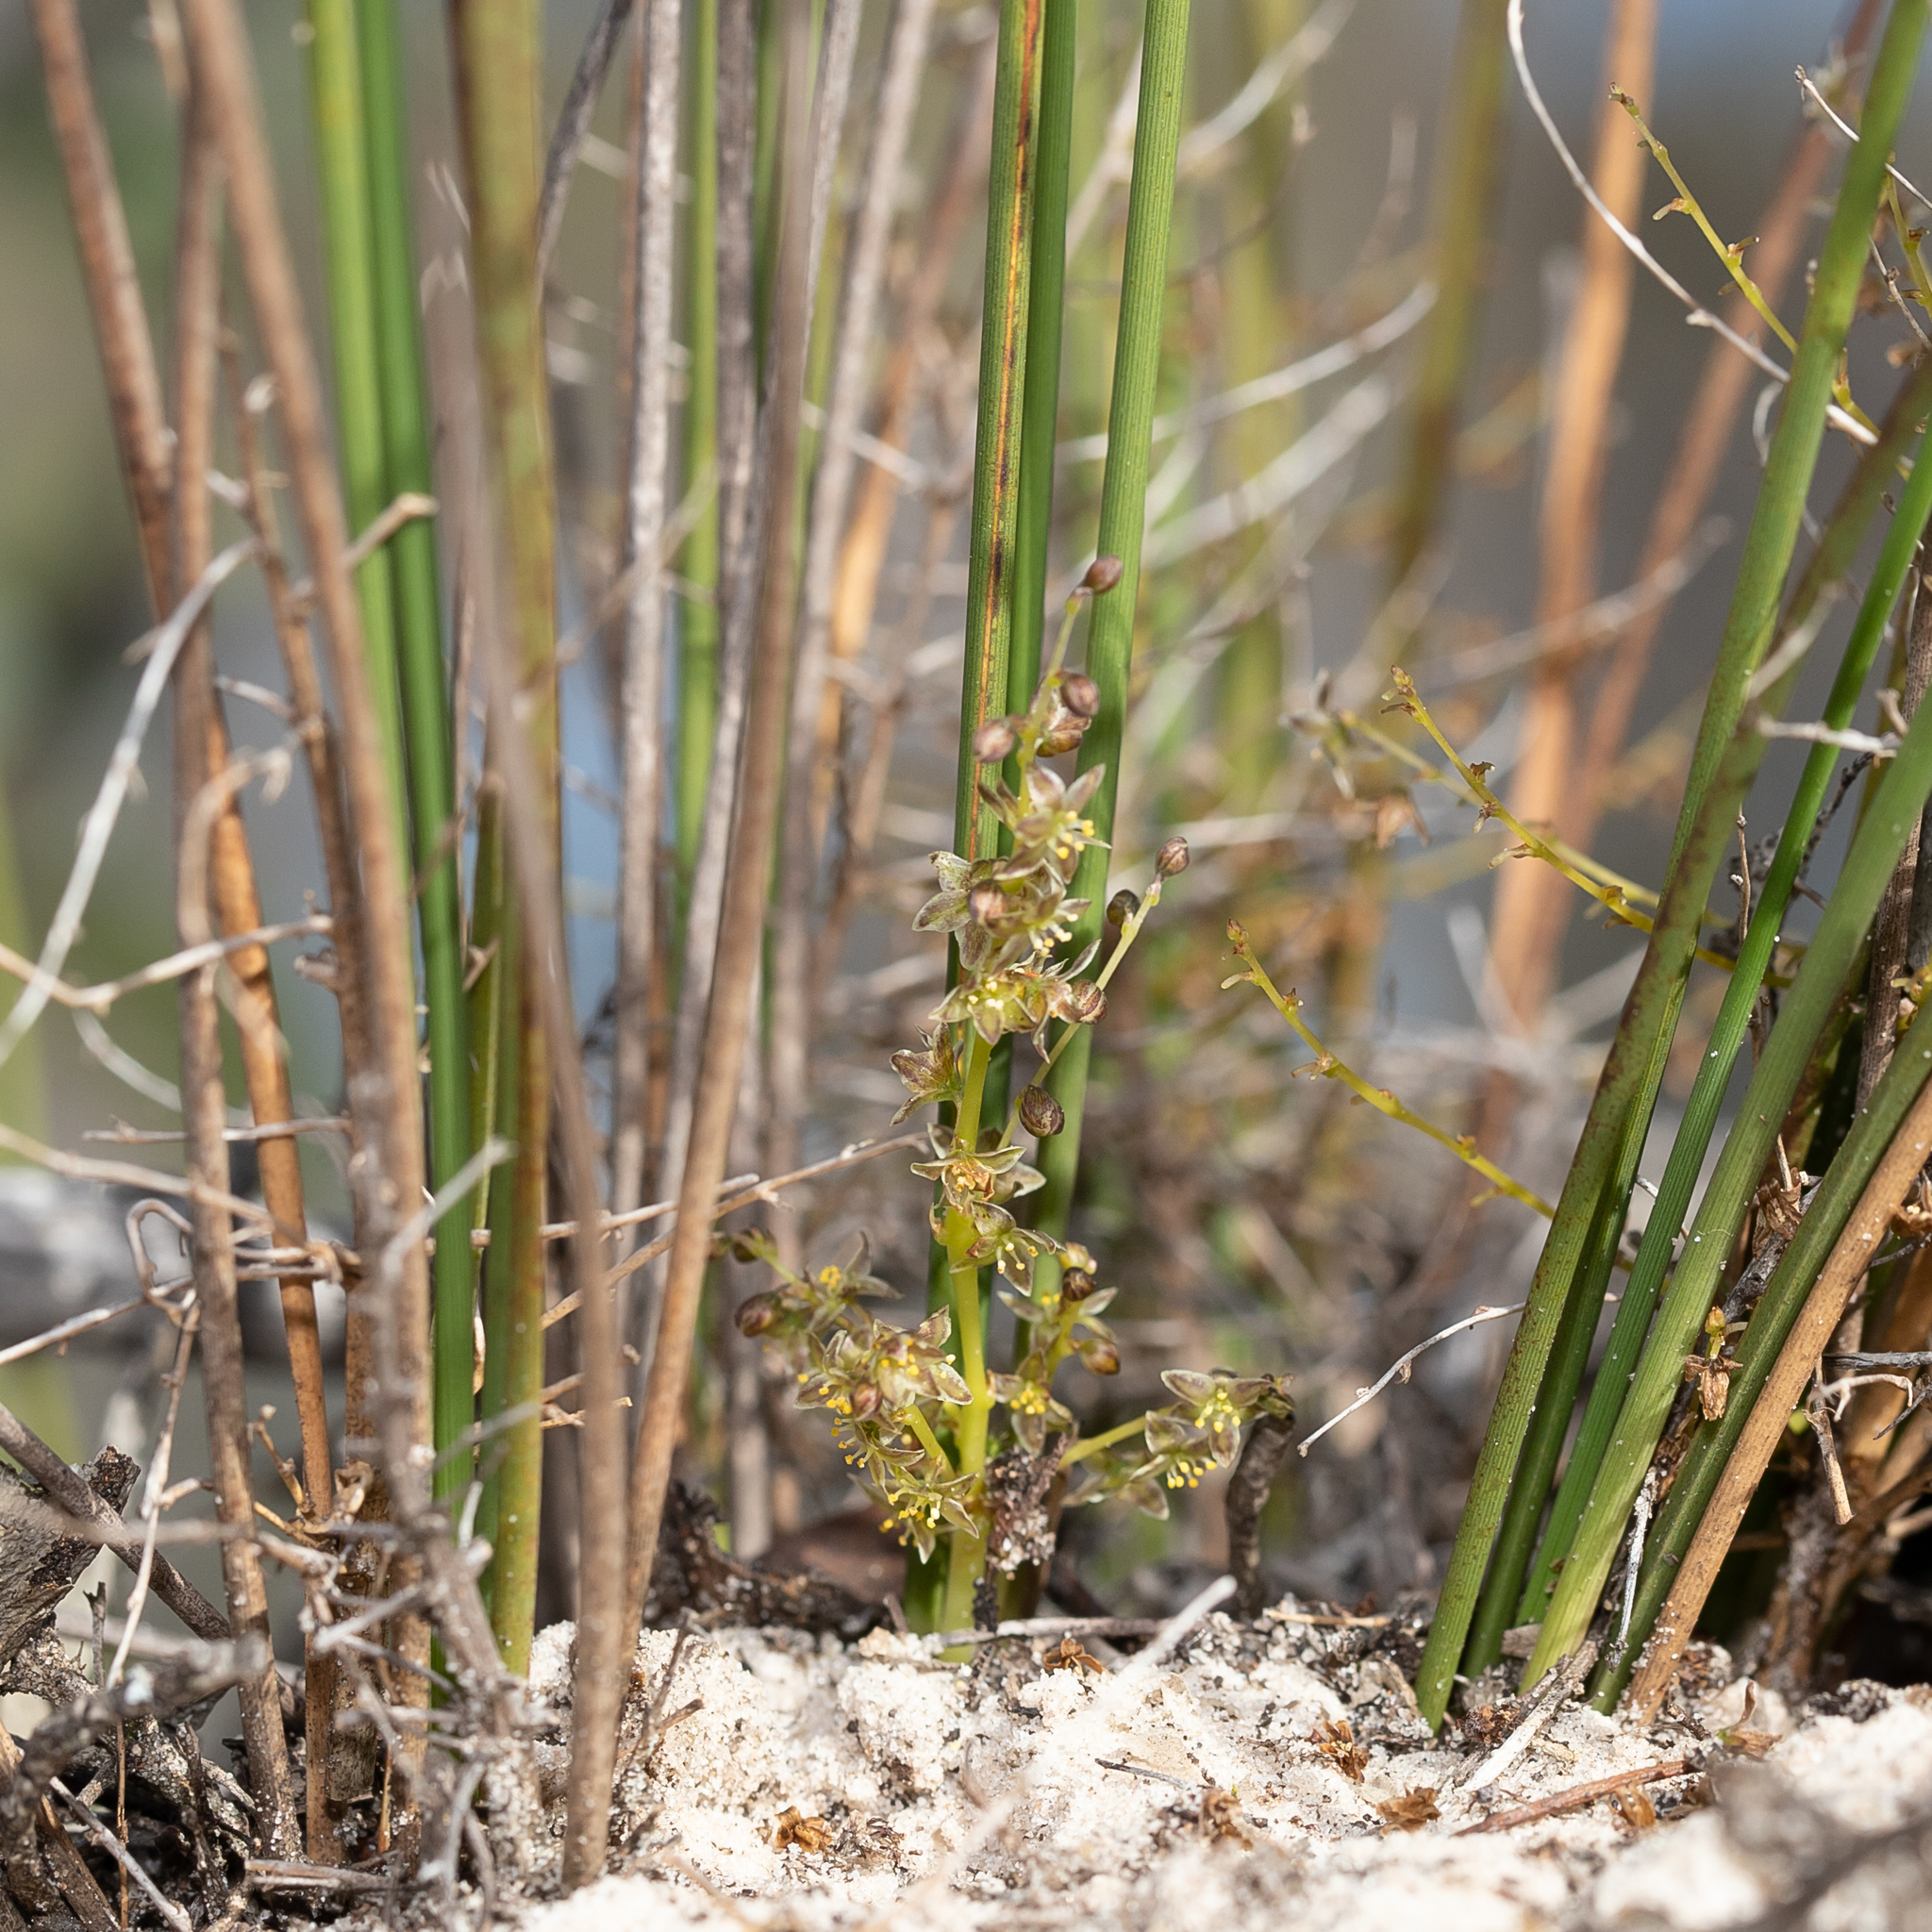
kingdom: Plantae
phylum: Tracheophyta
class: Liliopsida
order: Asparagales
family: Asparagaceae
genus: Lomandra
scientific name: Lomandra micrantha
